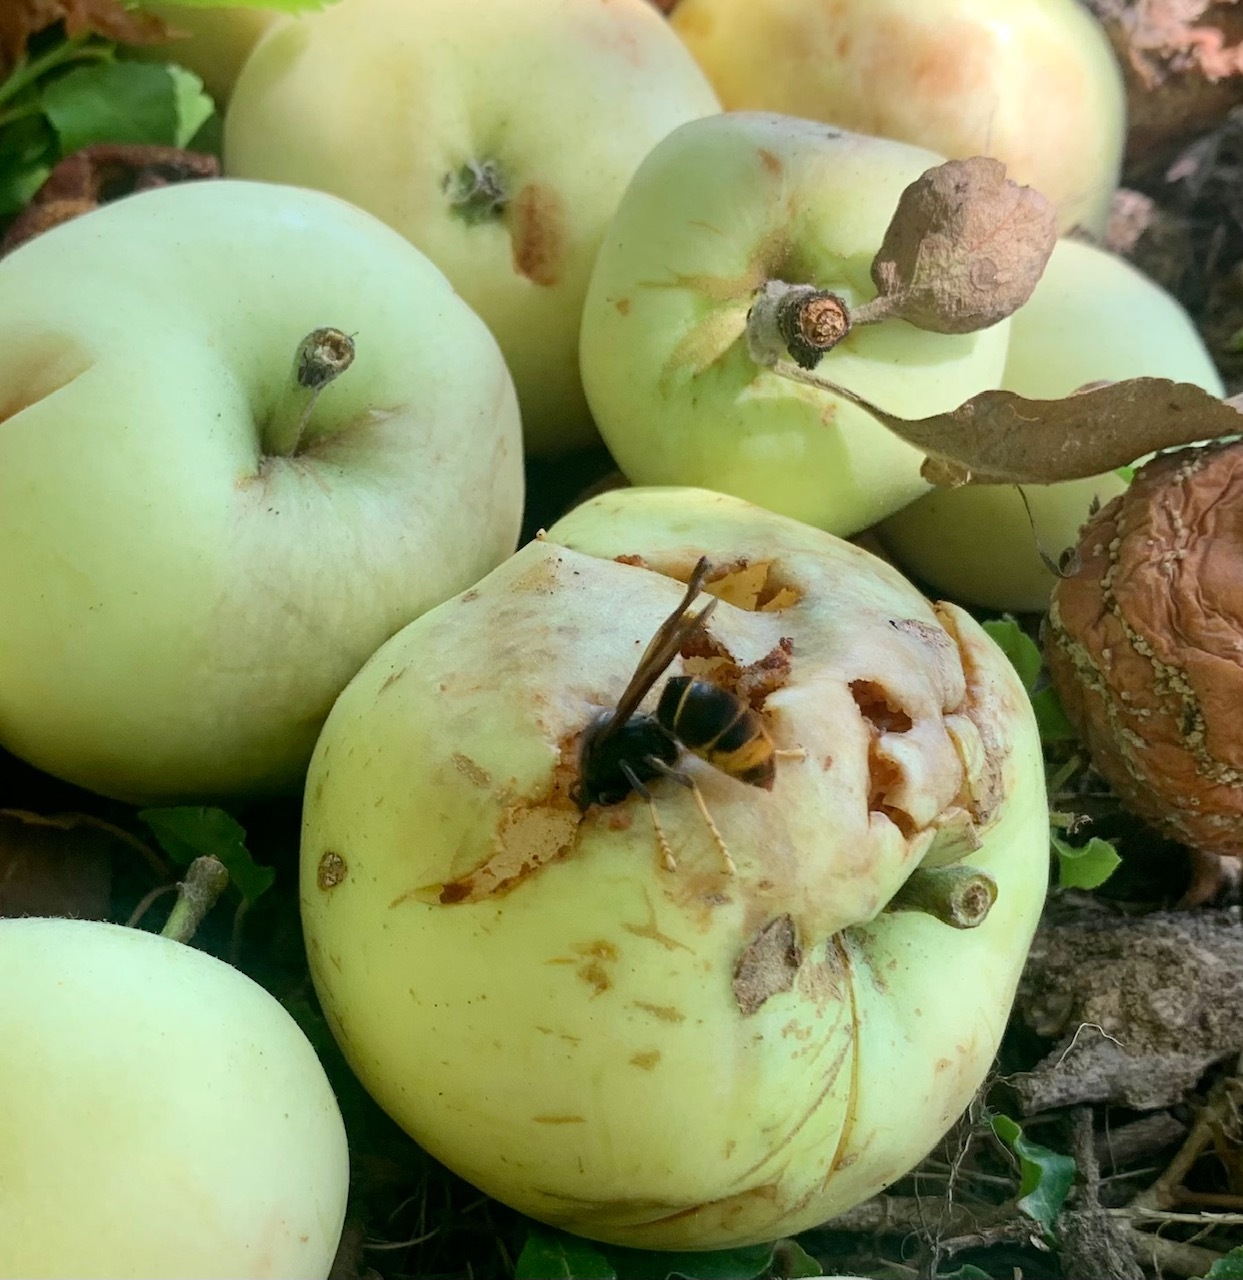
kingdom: Animalia
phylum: Arthropoda
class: Insecta
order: Hymenoptera
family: Vespidae
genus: Vespa
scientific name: Vespa velutina
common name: Asian hornet
